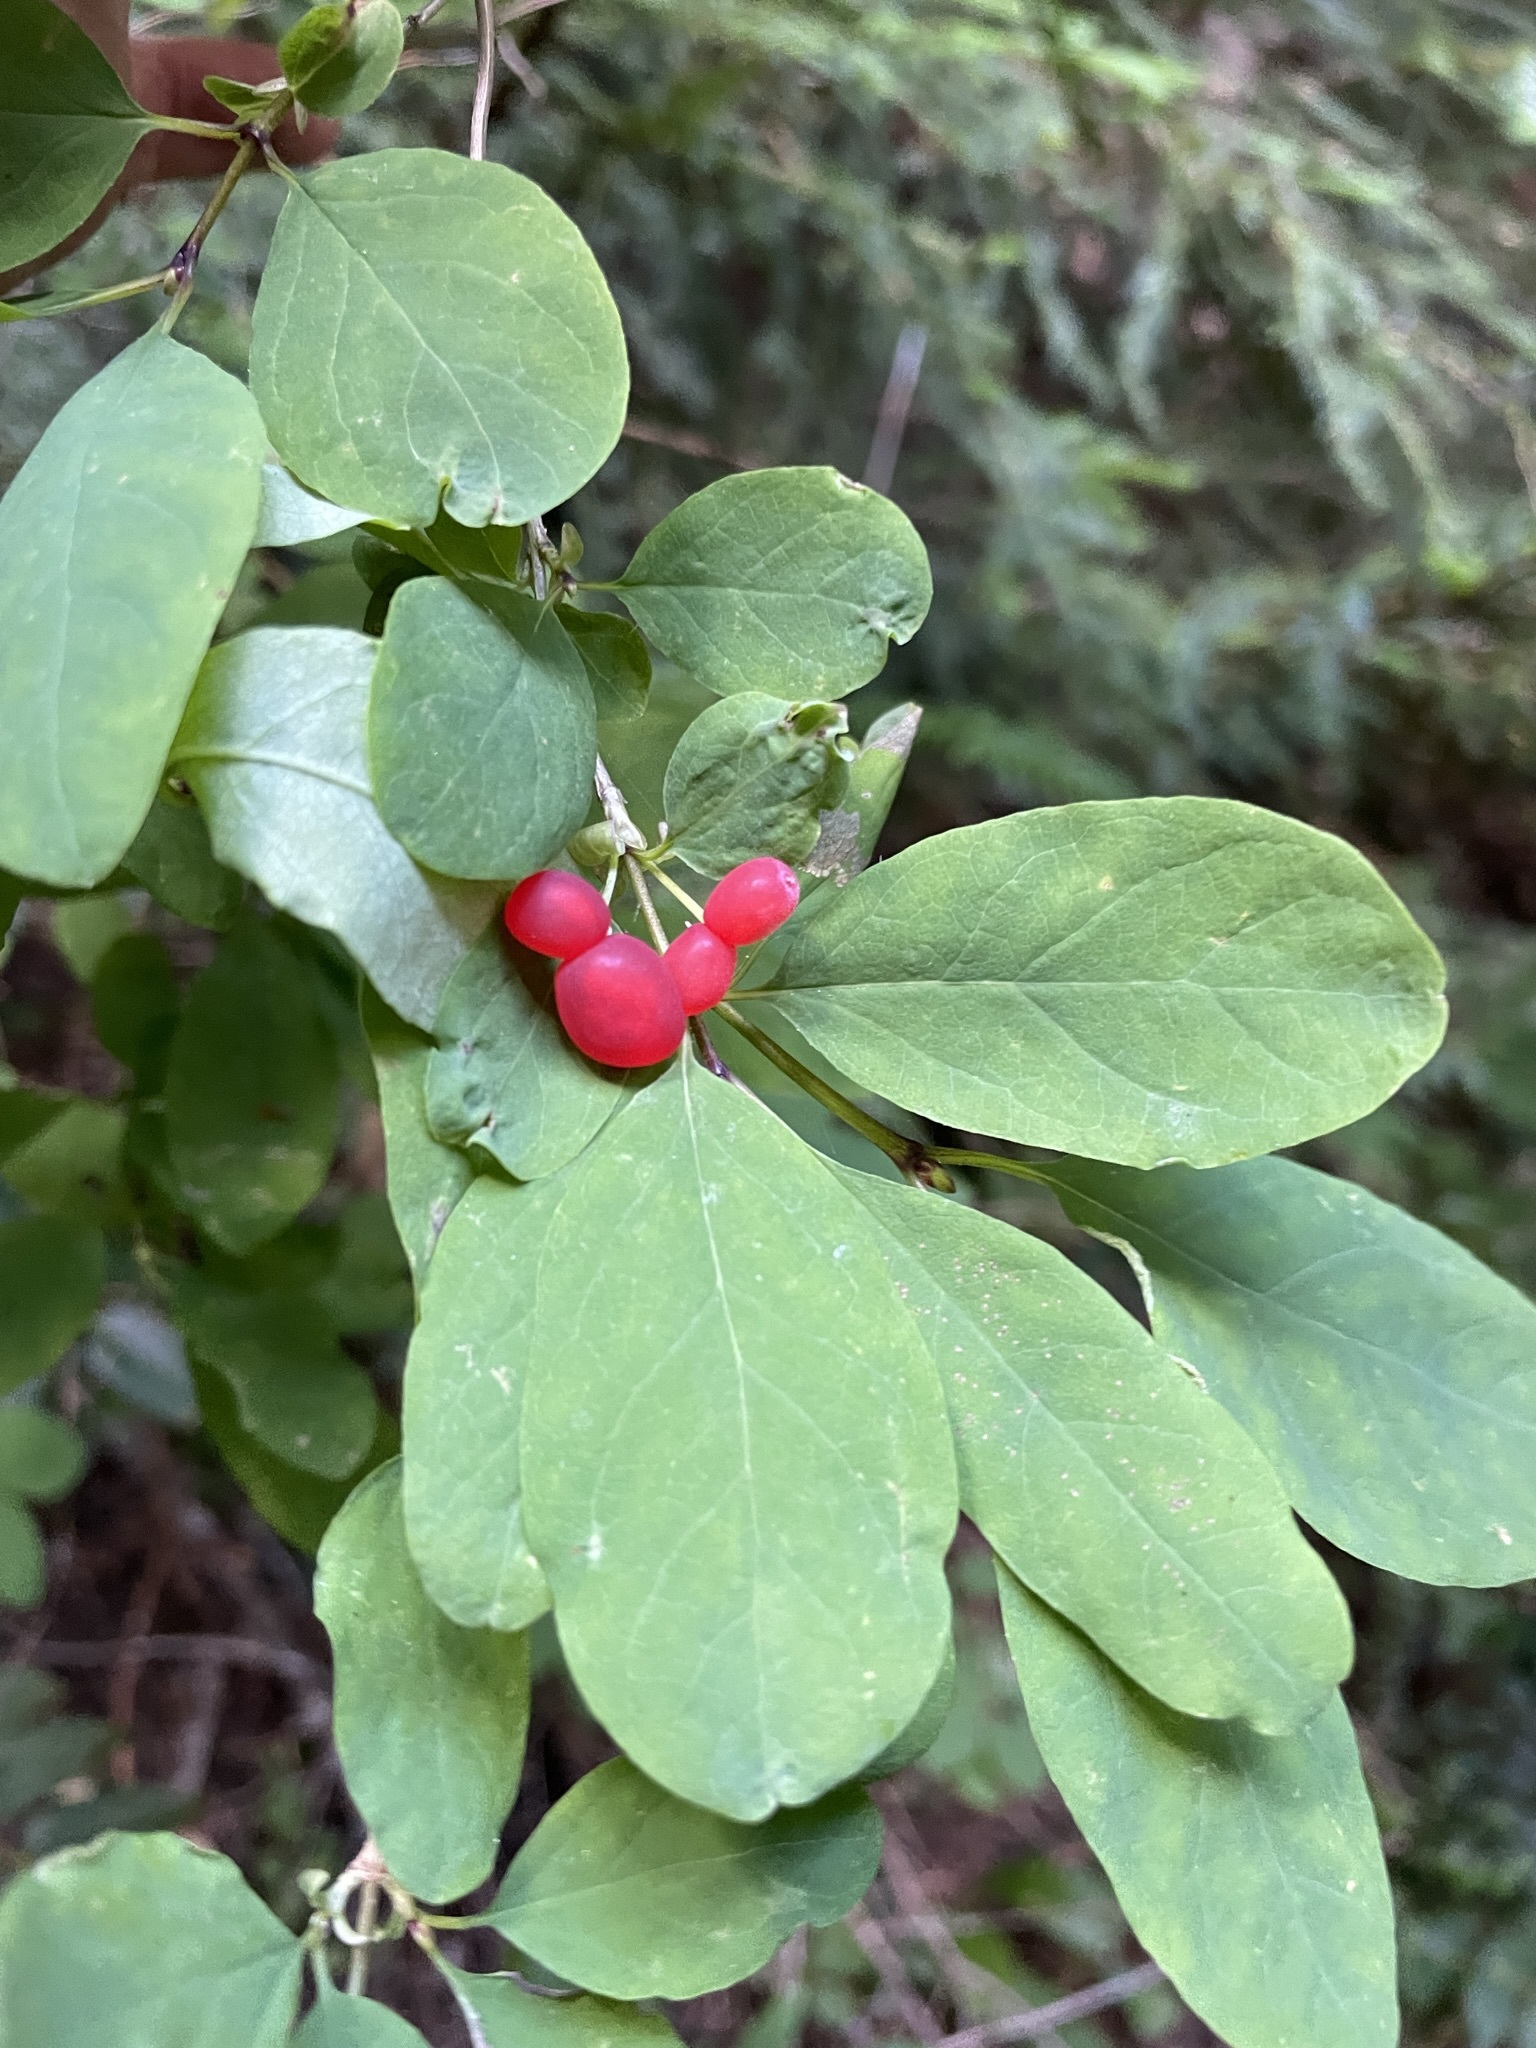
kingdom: Plantae
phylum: Tracheophyta
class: Magnoliopsida
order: Dipsacales
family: Caprifoliaceae
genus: Lonicera
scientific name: Lonicera utahensis
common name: Utah honeysuckle
